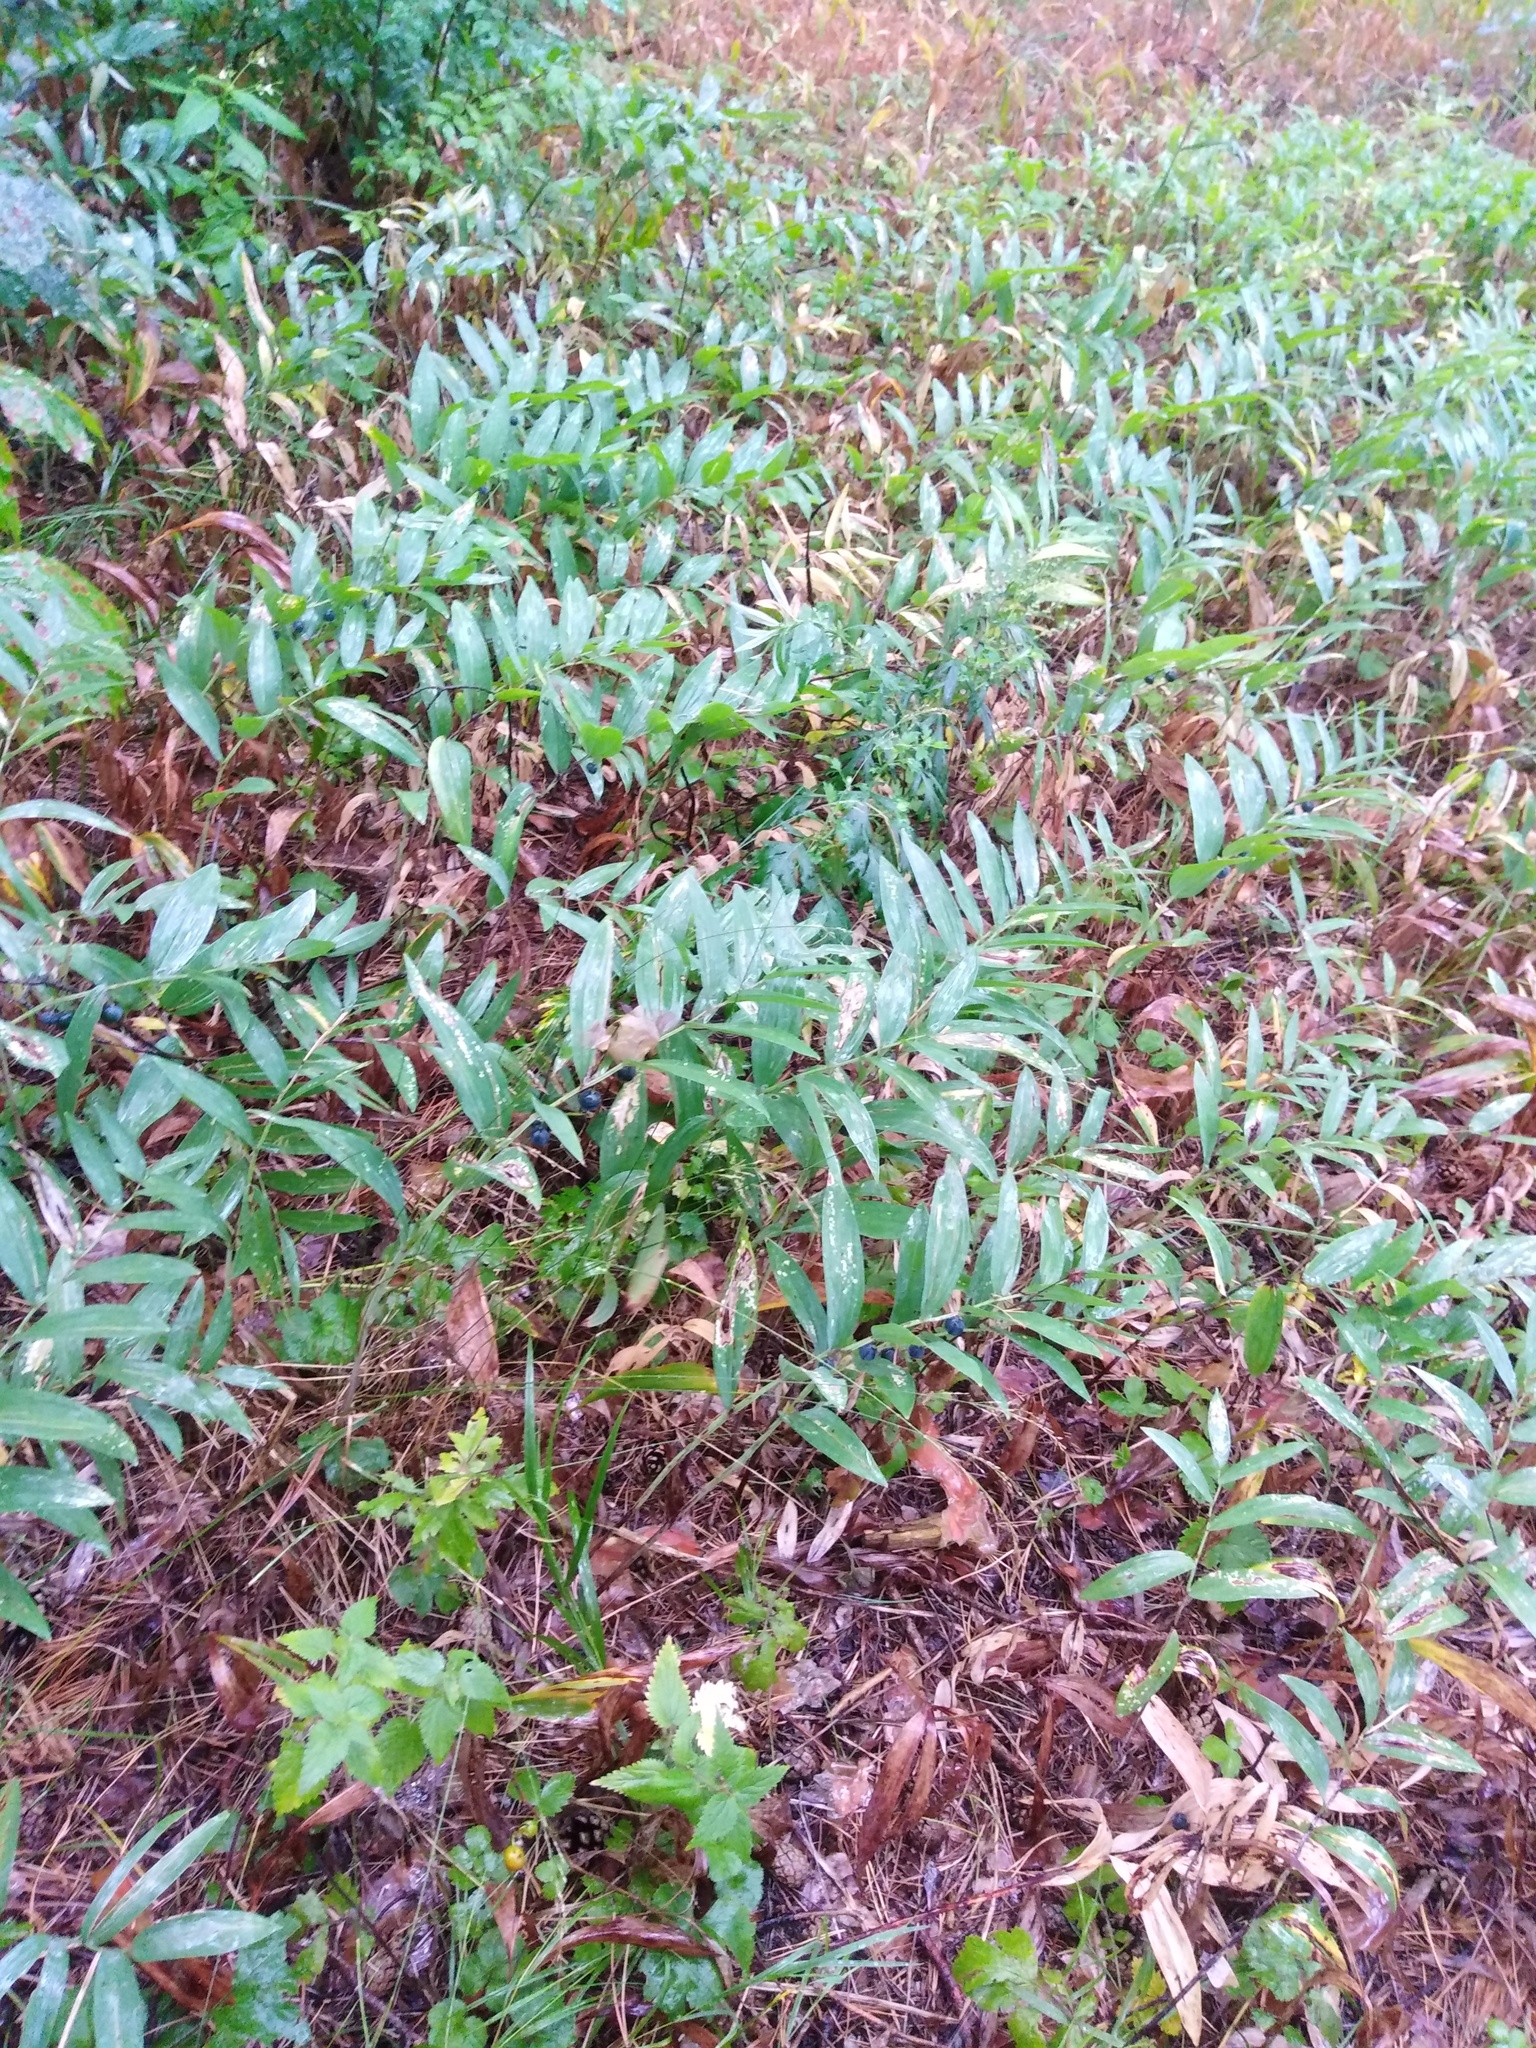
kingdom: Plantae
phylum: Tracheophyta
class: Liliopsida
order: Asparagales
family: Asparagaceae
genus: Polygonatum
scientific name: Polygonatum odoratum
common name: Angular solomon's-seal
